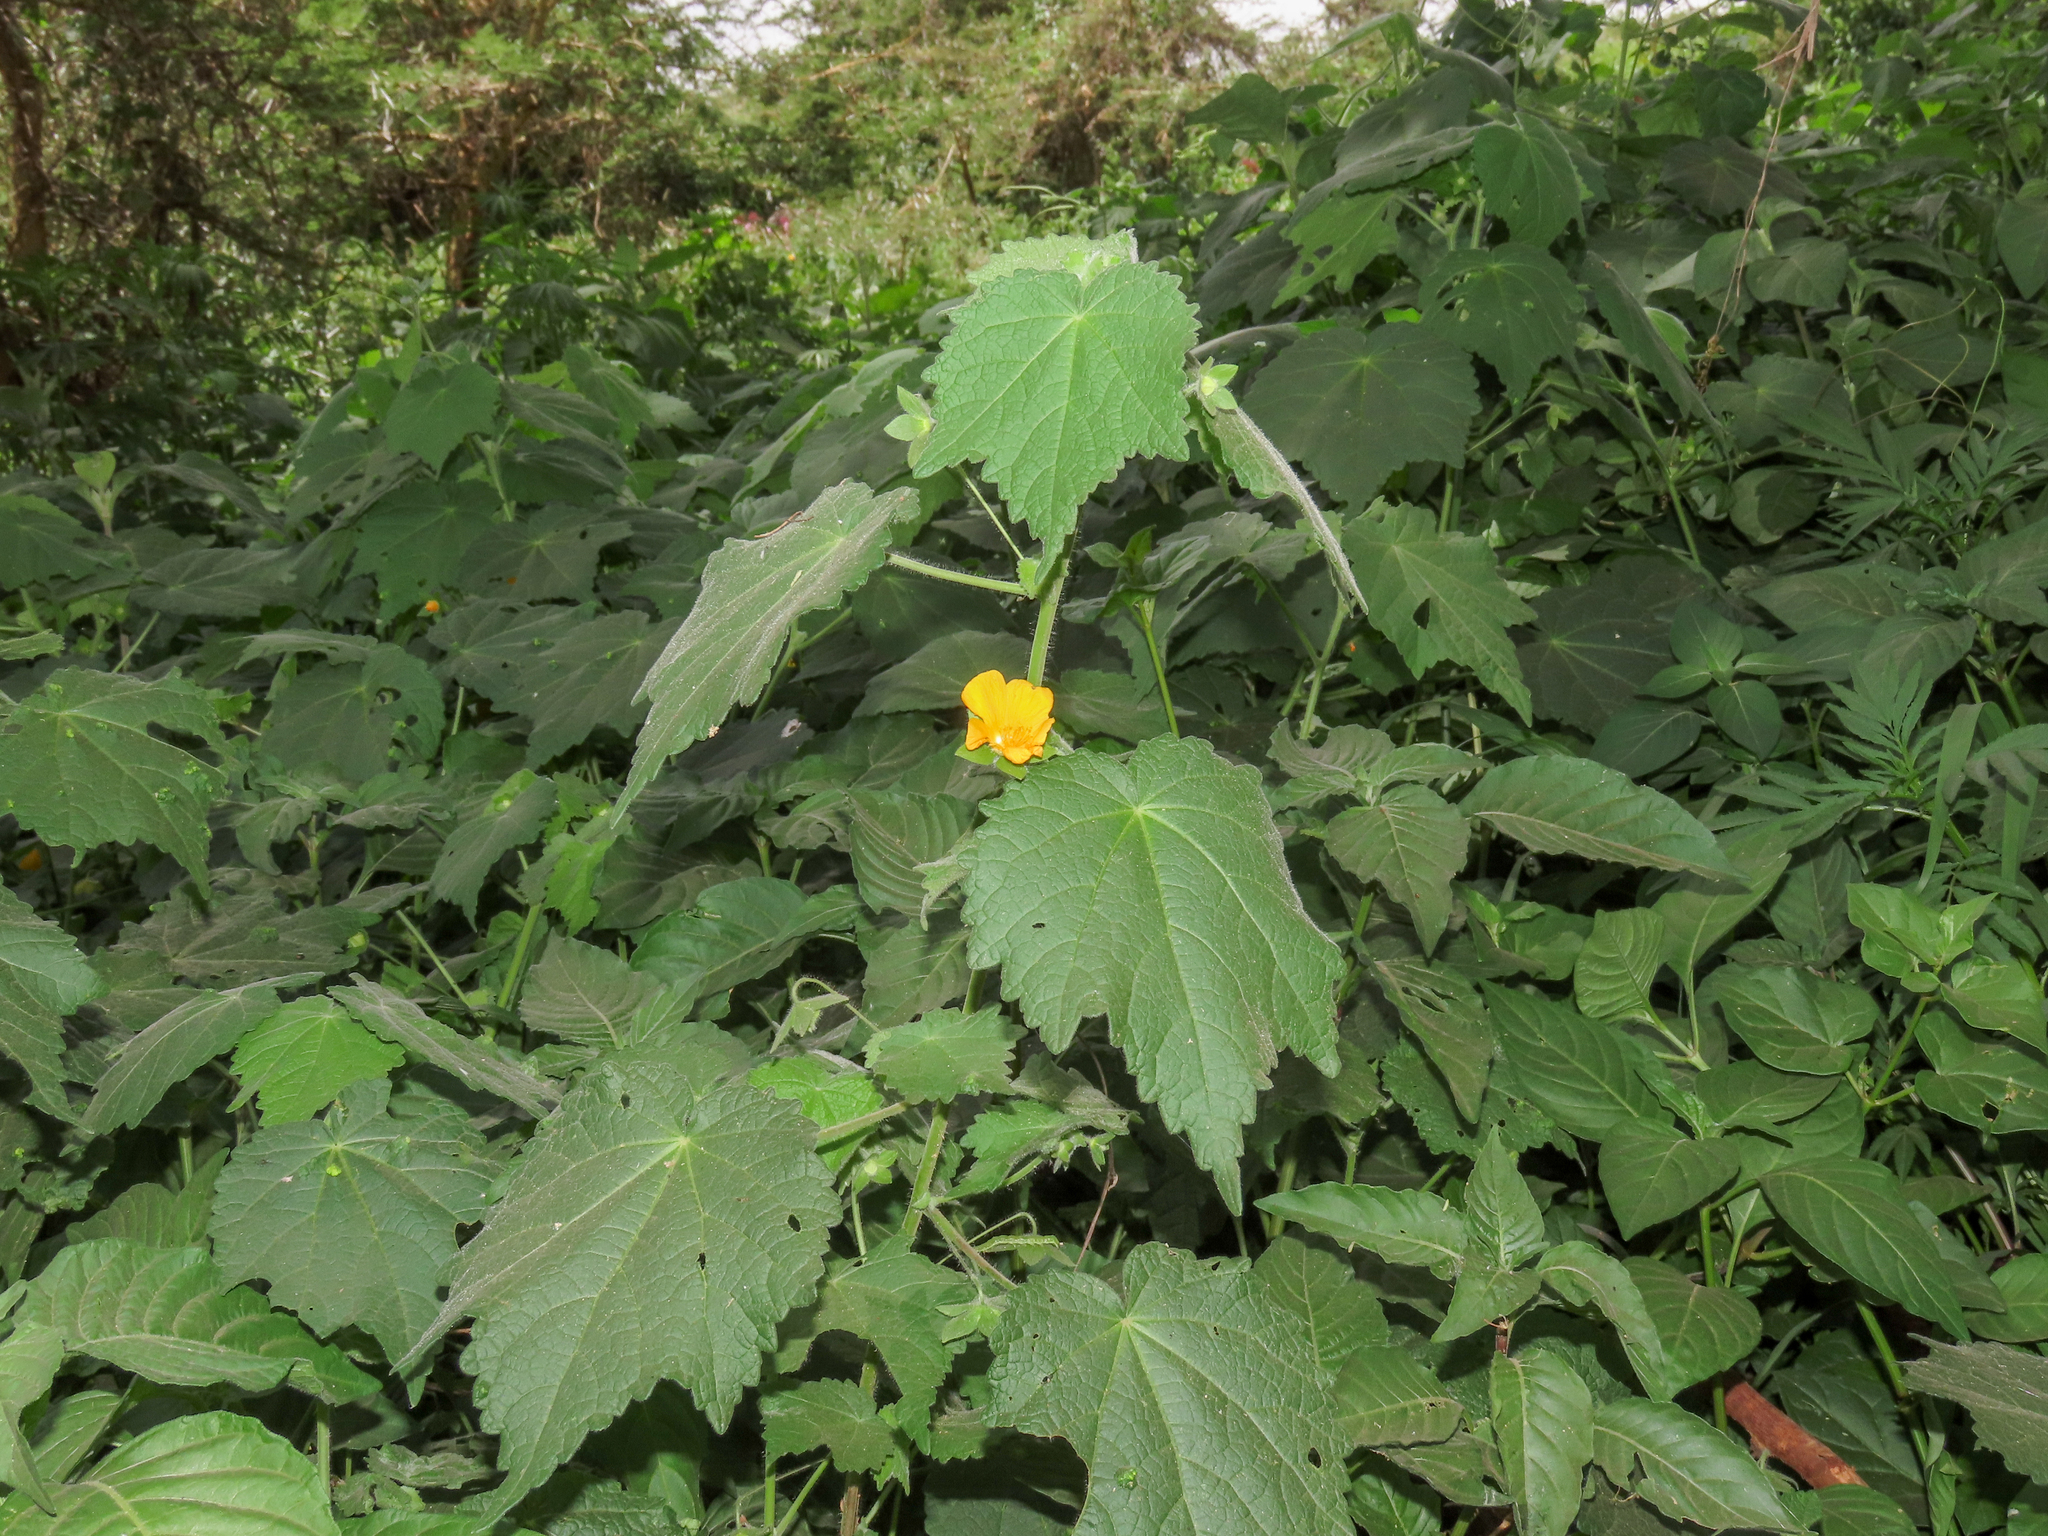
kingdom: Plantae
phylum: Tracheophyta
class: Magnoliopsida
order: Malvales
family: Malvaceae
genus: Pavonia
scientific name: Pavonia burchellii
